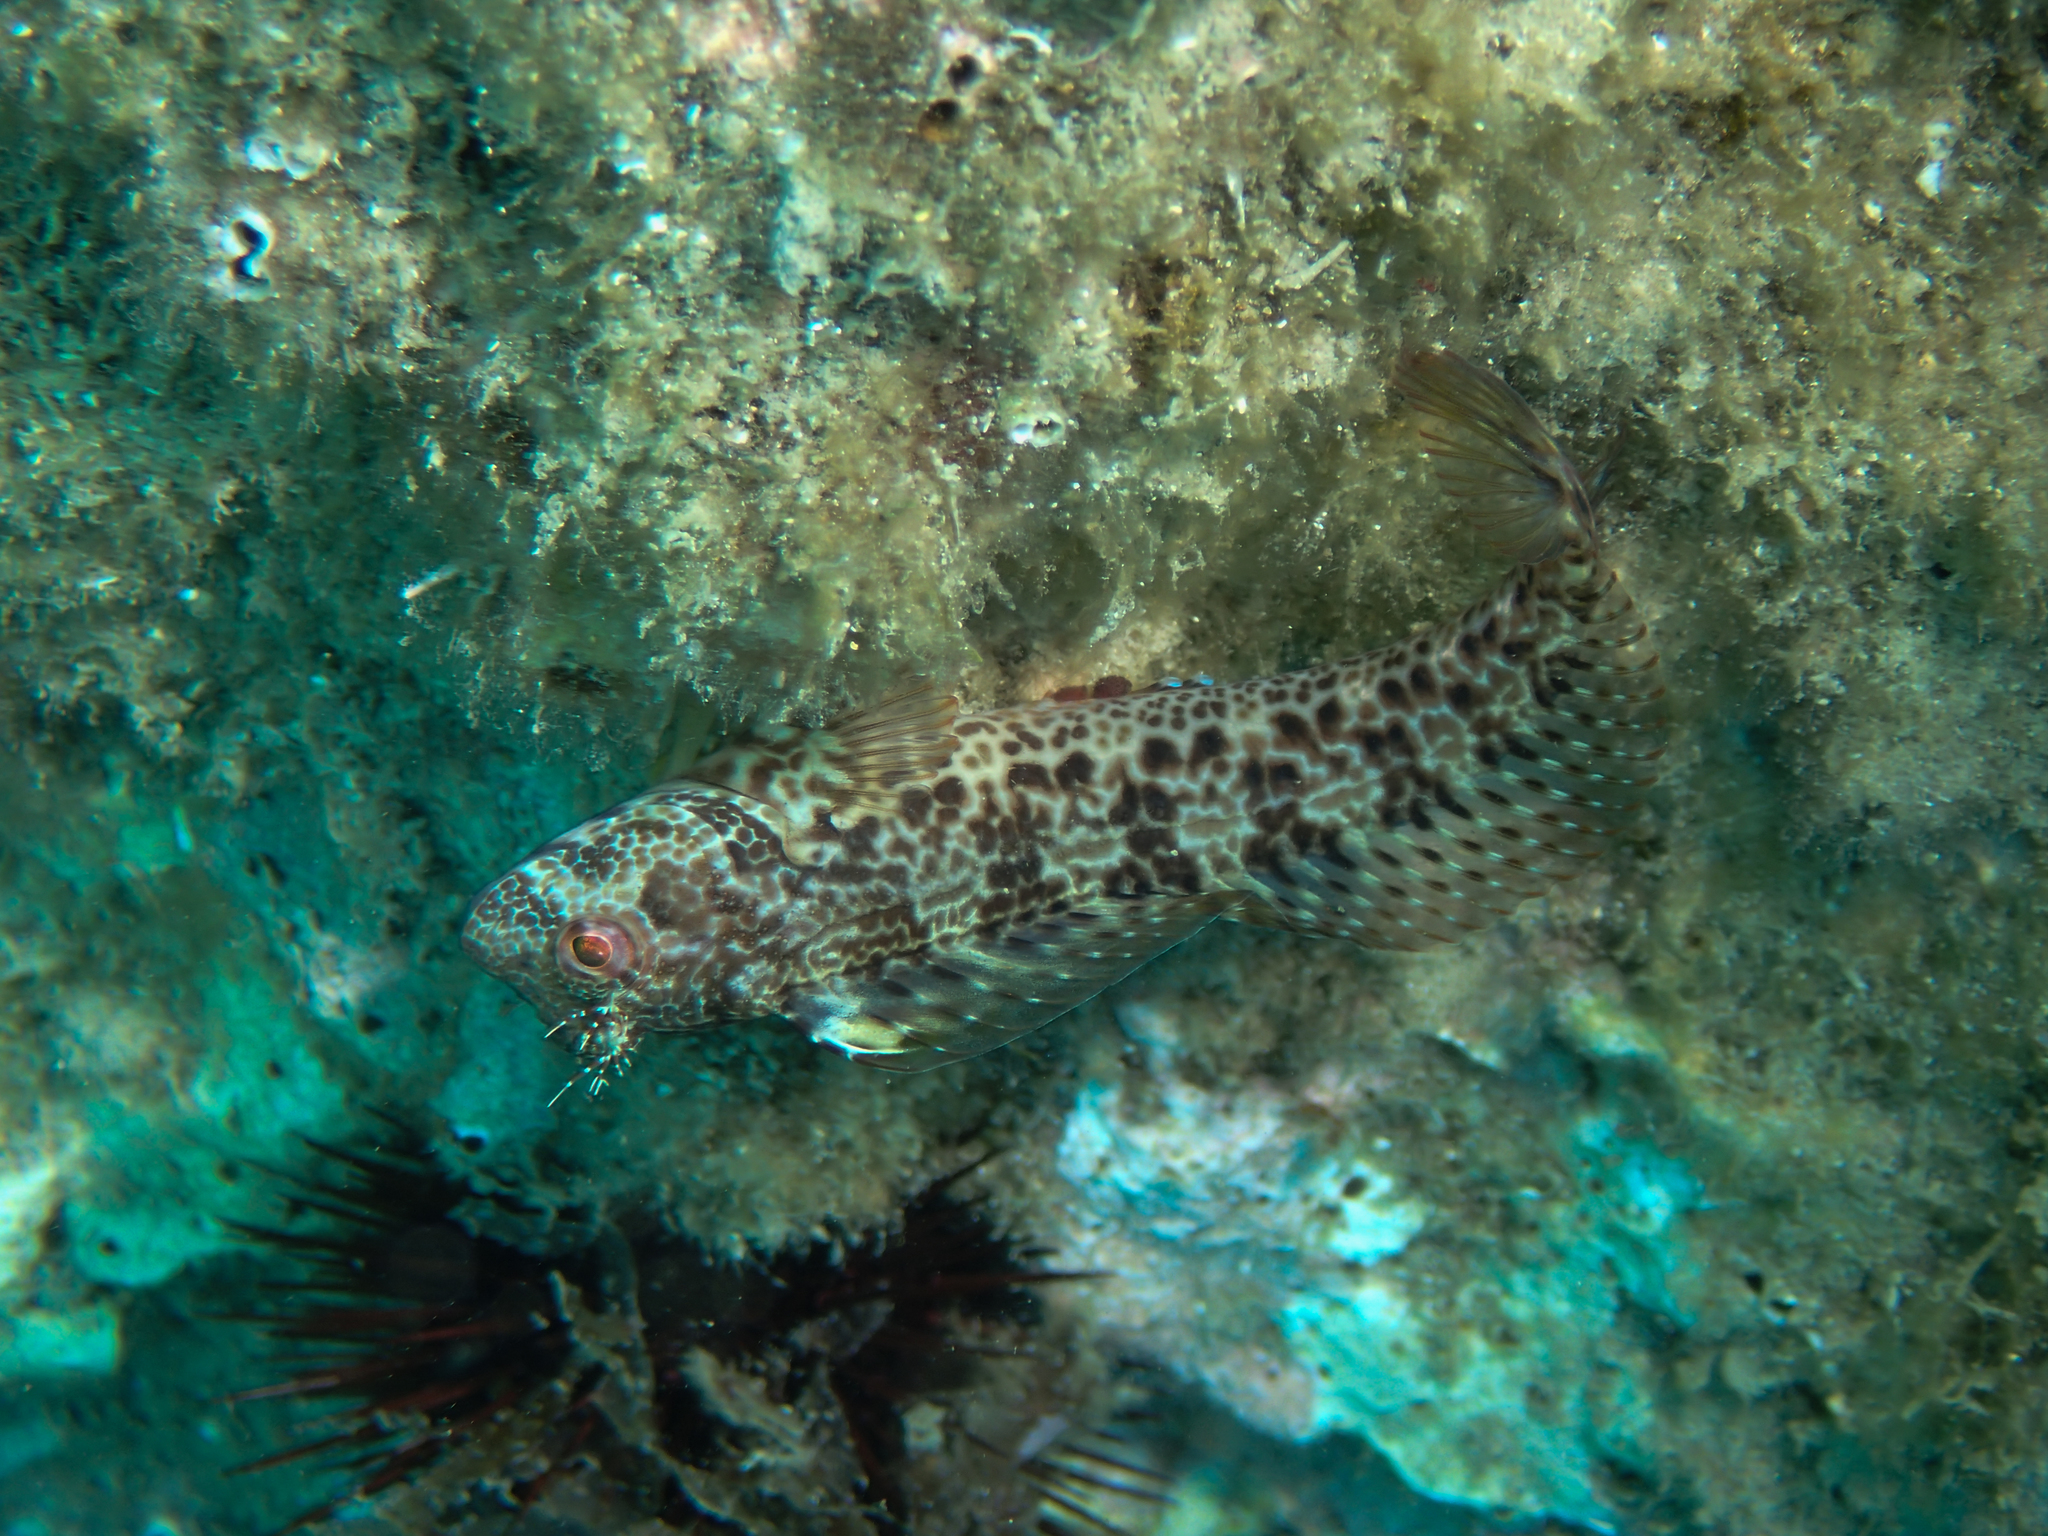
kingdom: Animalia
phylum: Chordata
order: Perciformes
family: Blenniidae
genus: Parablennius
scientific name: Parablennius pilicornis
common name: Ringneck blenny
